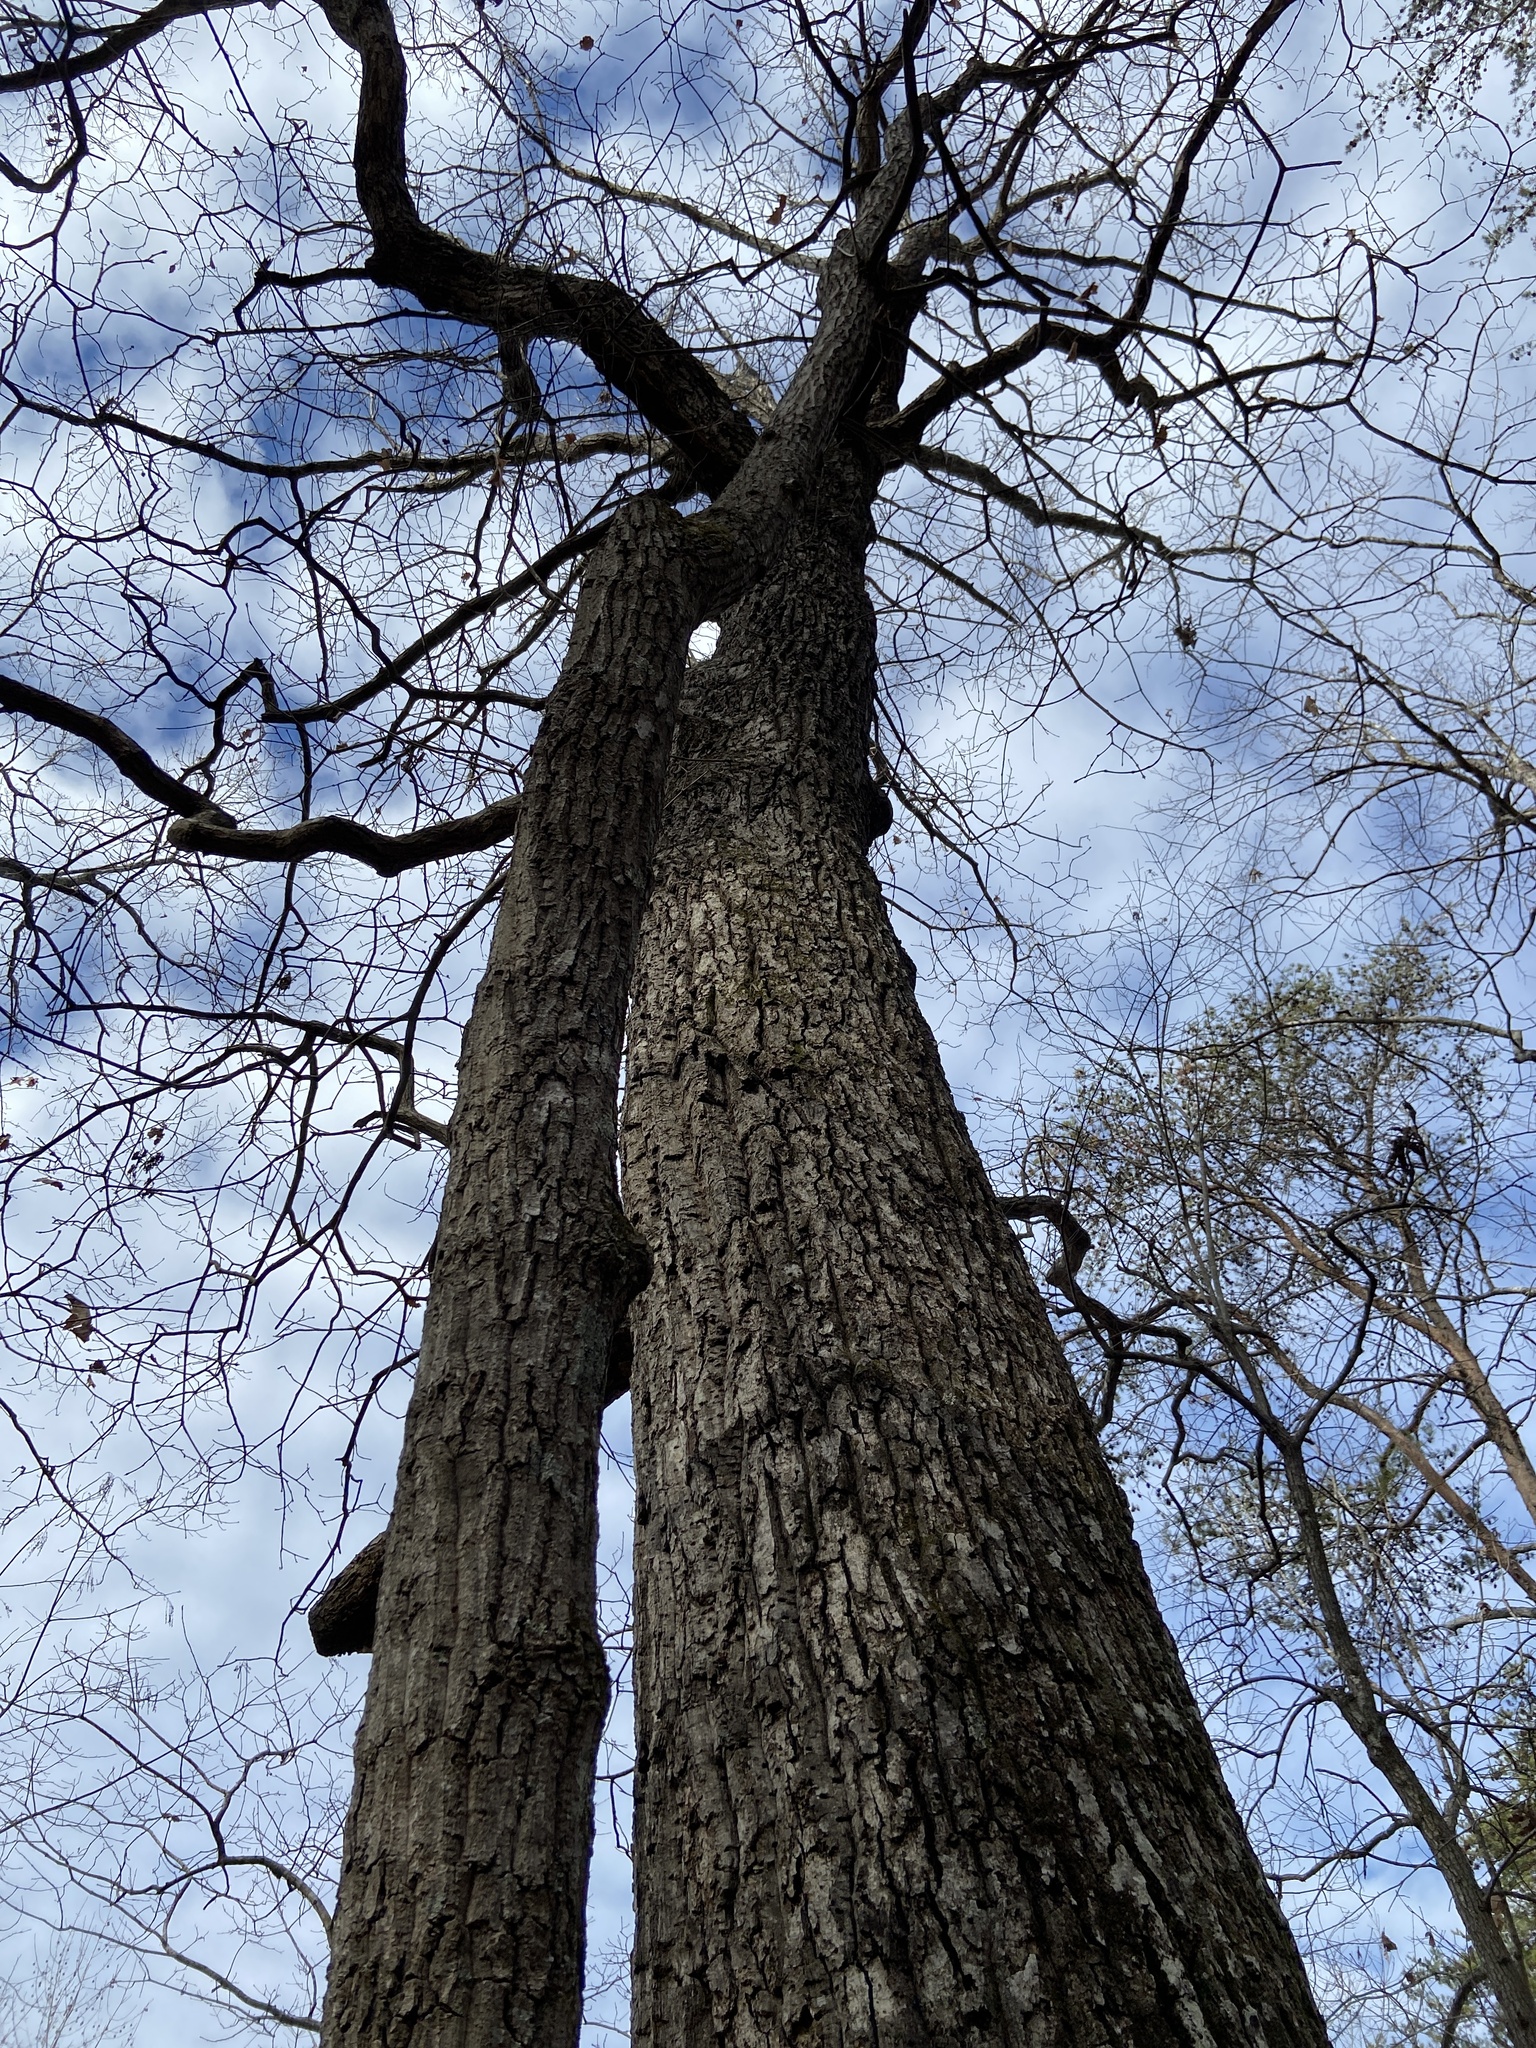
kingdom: Plantae
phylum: Tracheophyta
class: Magnoliopsida
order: Fagales
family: Fagaceae
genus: Quercus
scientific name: Quercus montana
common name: Chestnut oak
